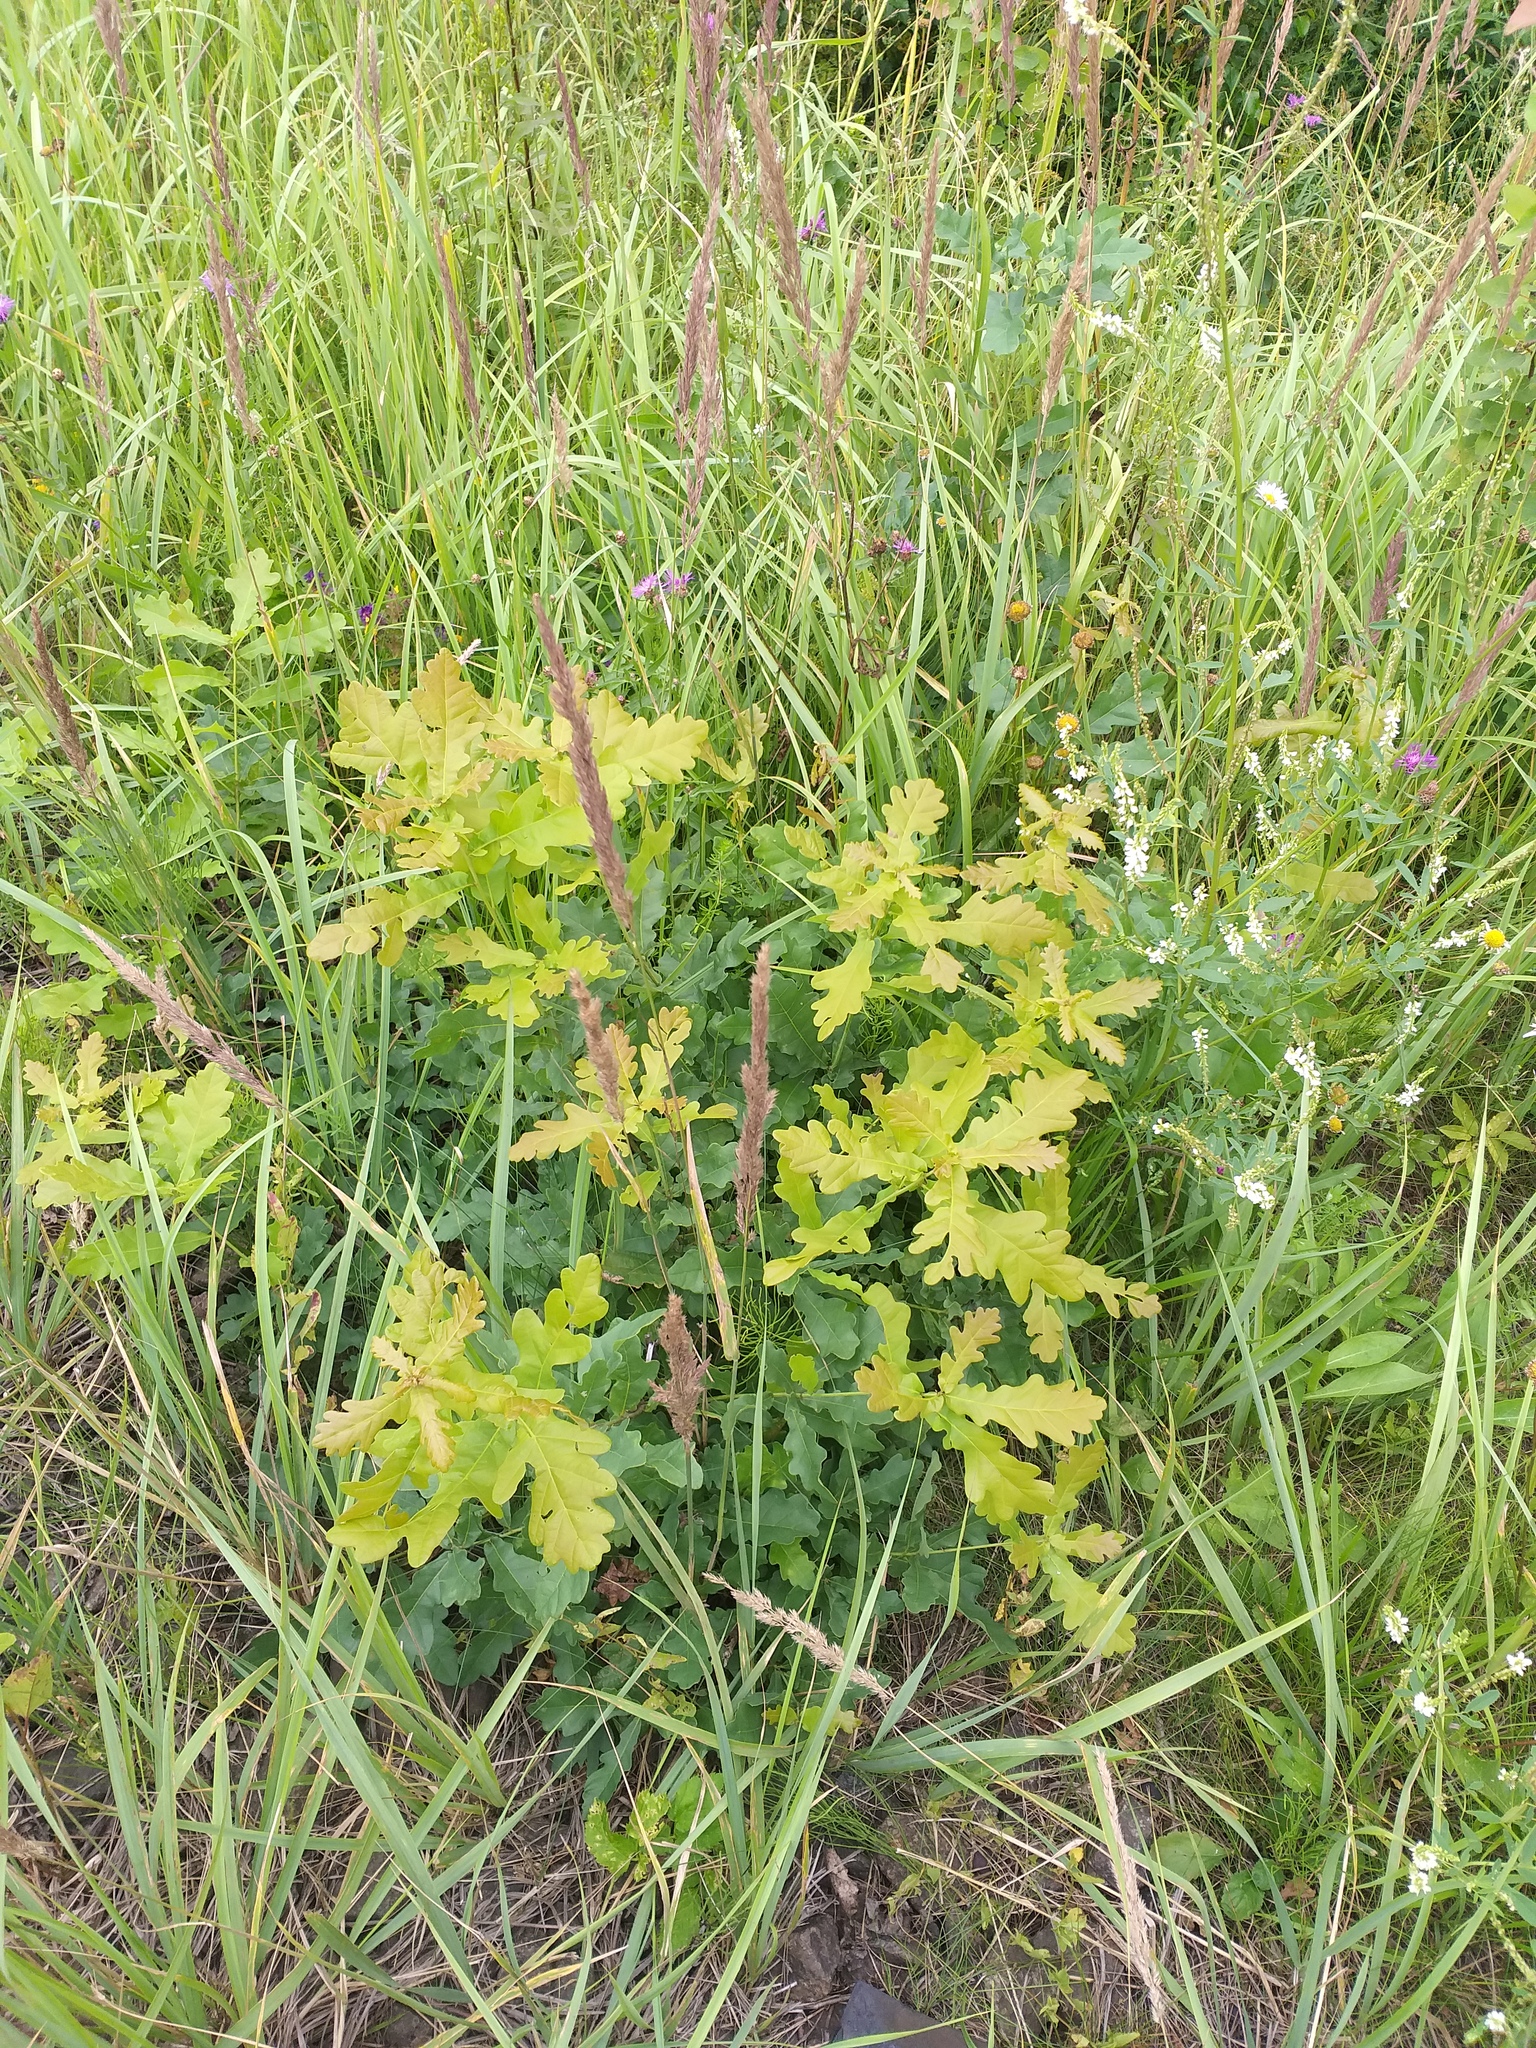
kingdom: Plantae
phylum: Tracheophyta
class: Magnoliopsida
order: Fagales
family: Fagaceae
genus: Quercus
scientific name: Quercus robur
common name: Pedunculate oak
